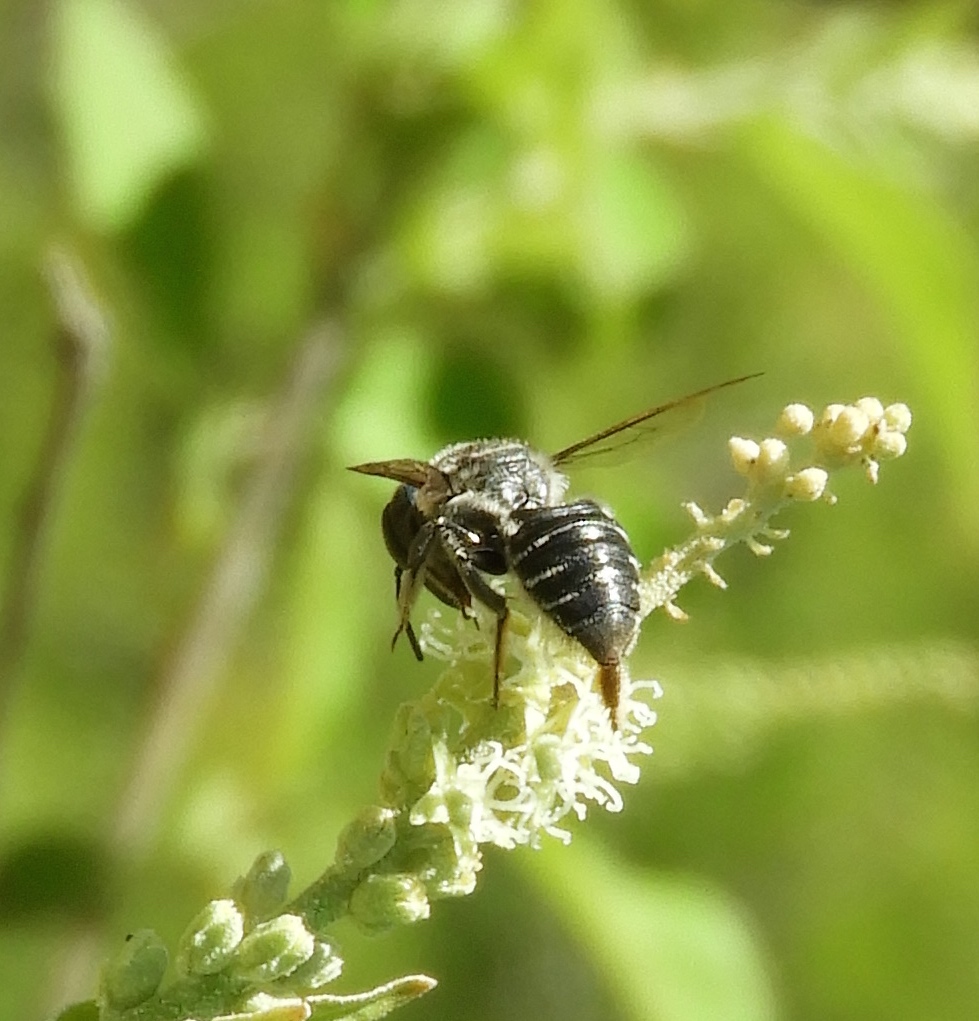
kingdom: Animalia
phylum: Arthropoda
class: Insecta
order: Hymenoptera
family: Megachilidae
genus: Megachile
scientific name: Megachile
